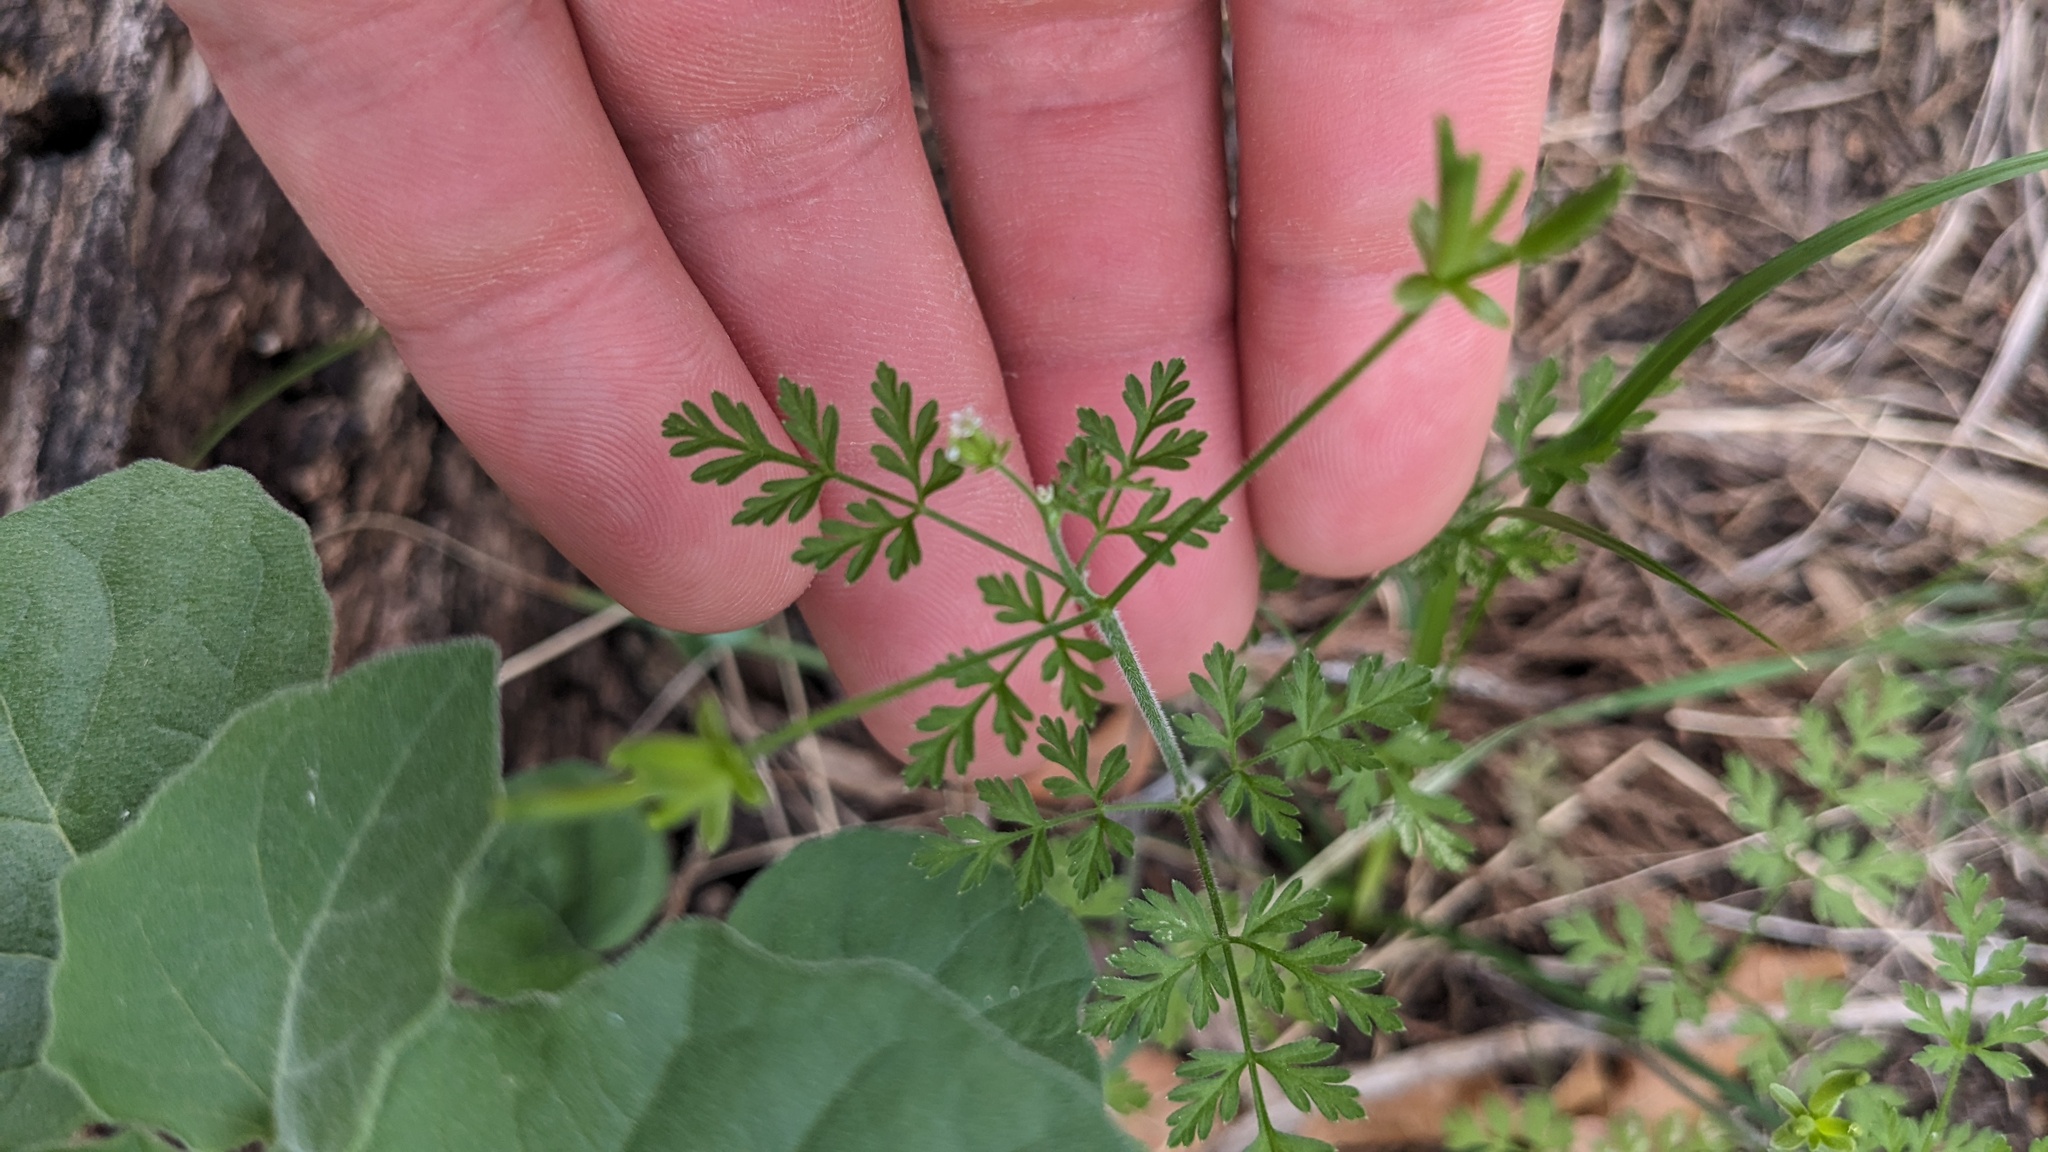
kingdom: Plantae
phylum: Tracheophyta
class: Magnoliopsida
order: Apiales
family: Apiaceae
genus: Chaerophyllum
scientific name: Chaerophyllum tainturieri
